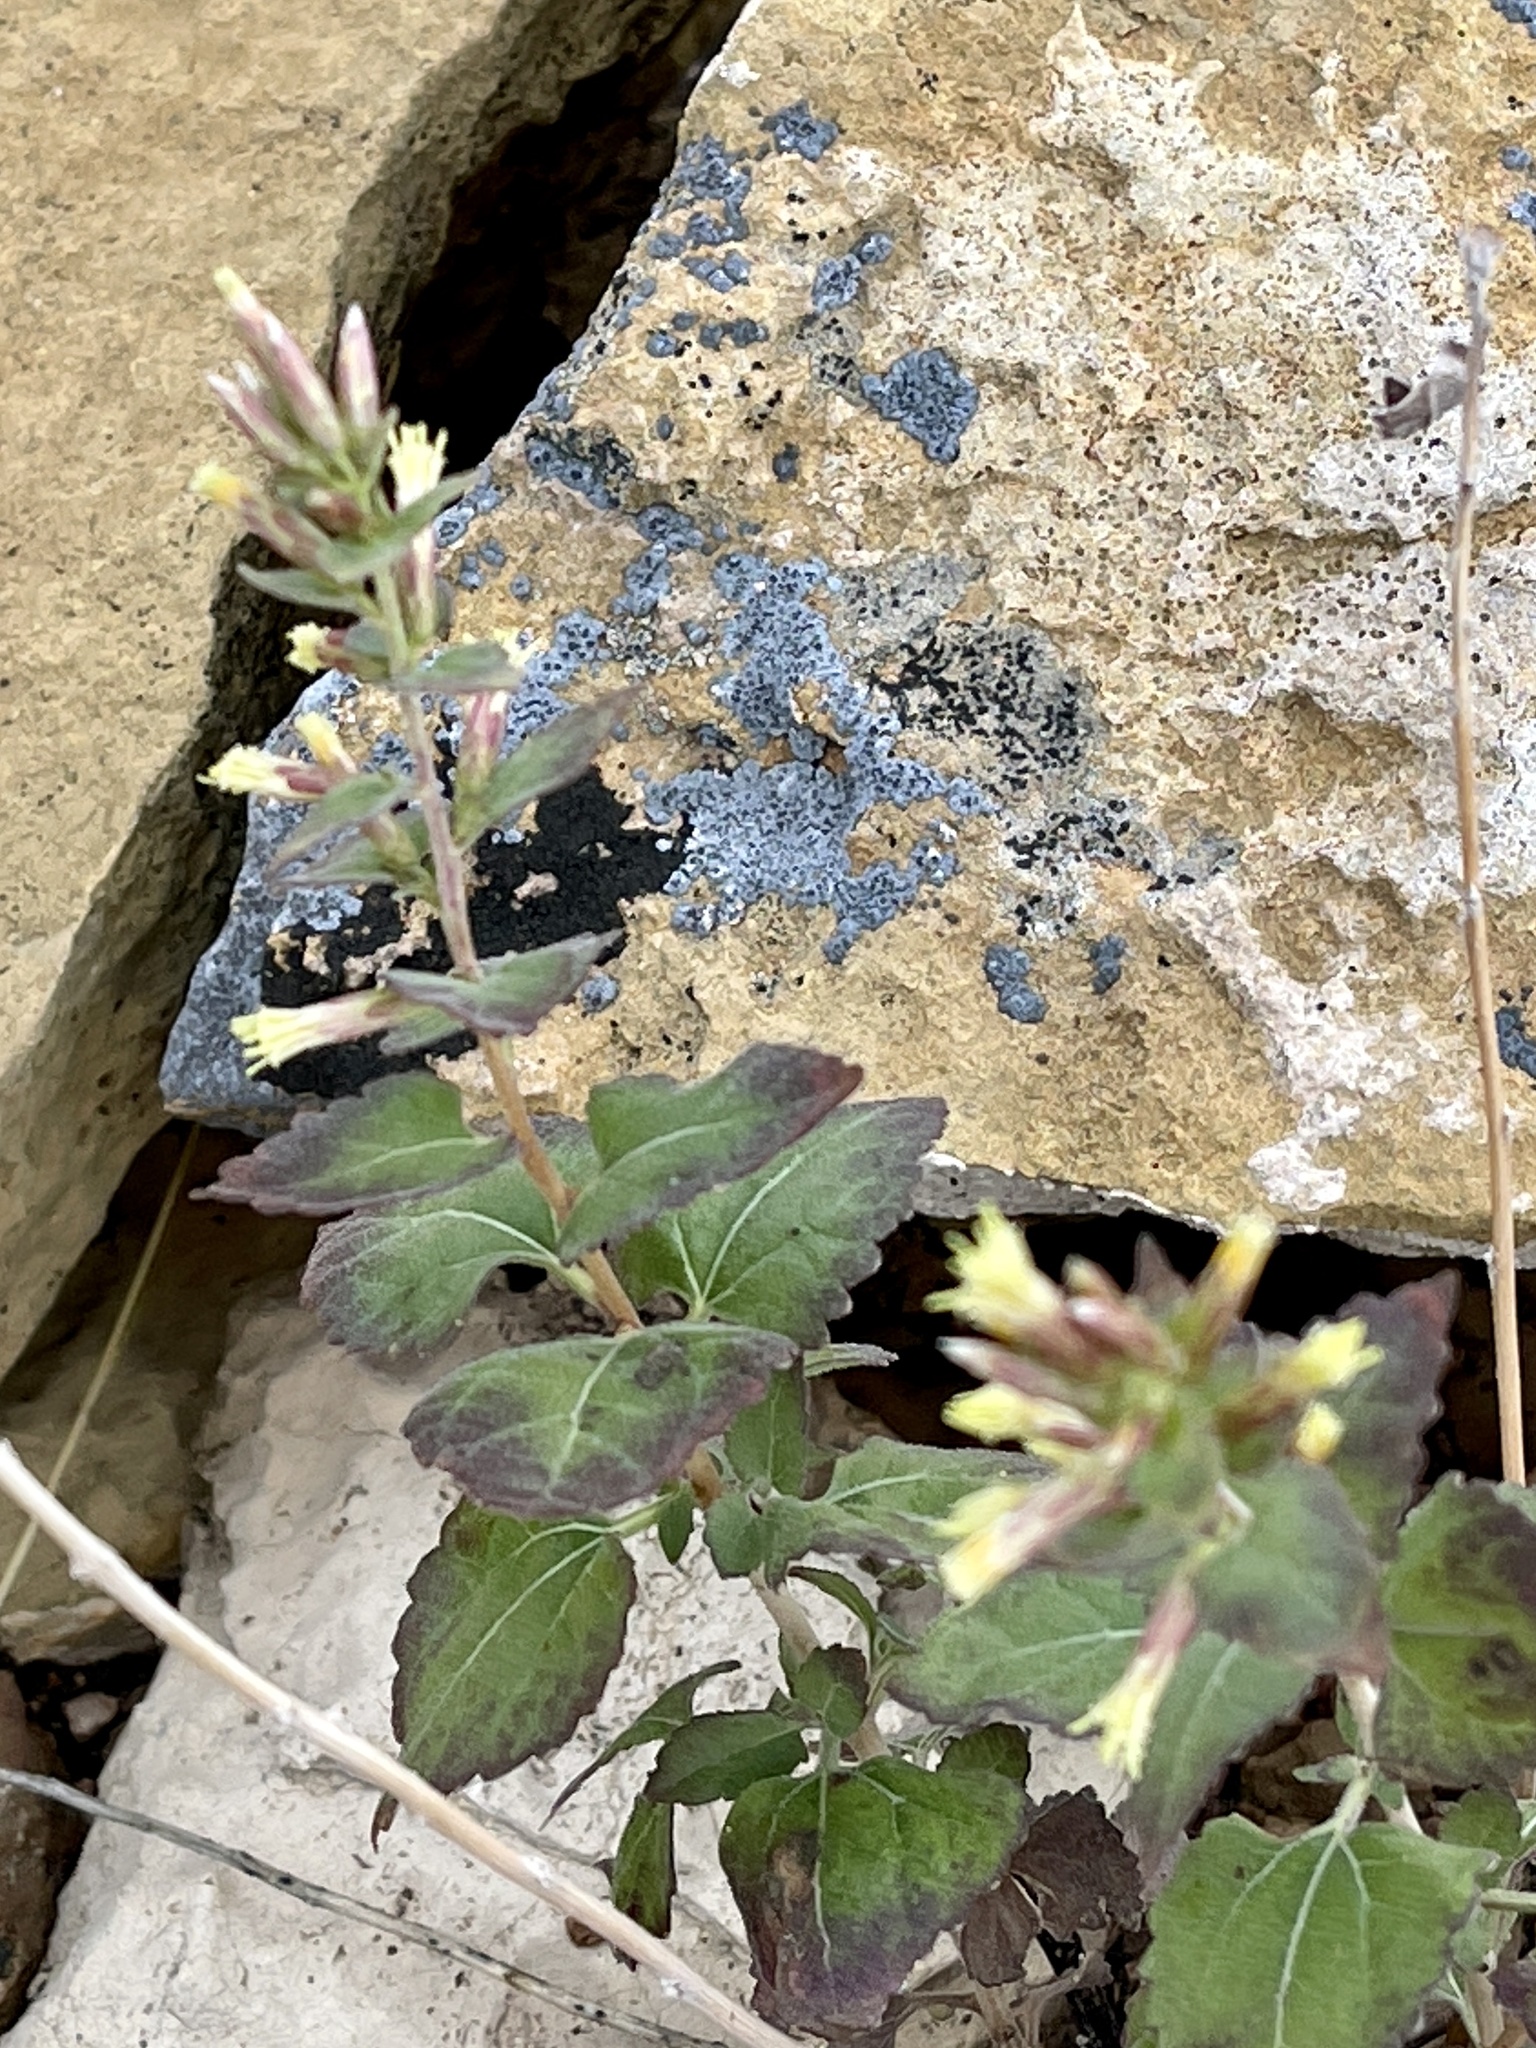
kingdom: Plantae
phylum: Tracheophyta
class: Magnoliopsida
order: Asterales
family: Asteraceae
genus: Brickellia
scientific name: Brickellia californica
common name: California brickellbush
